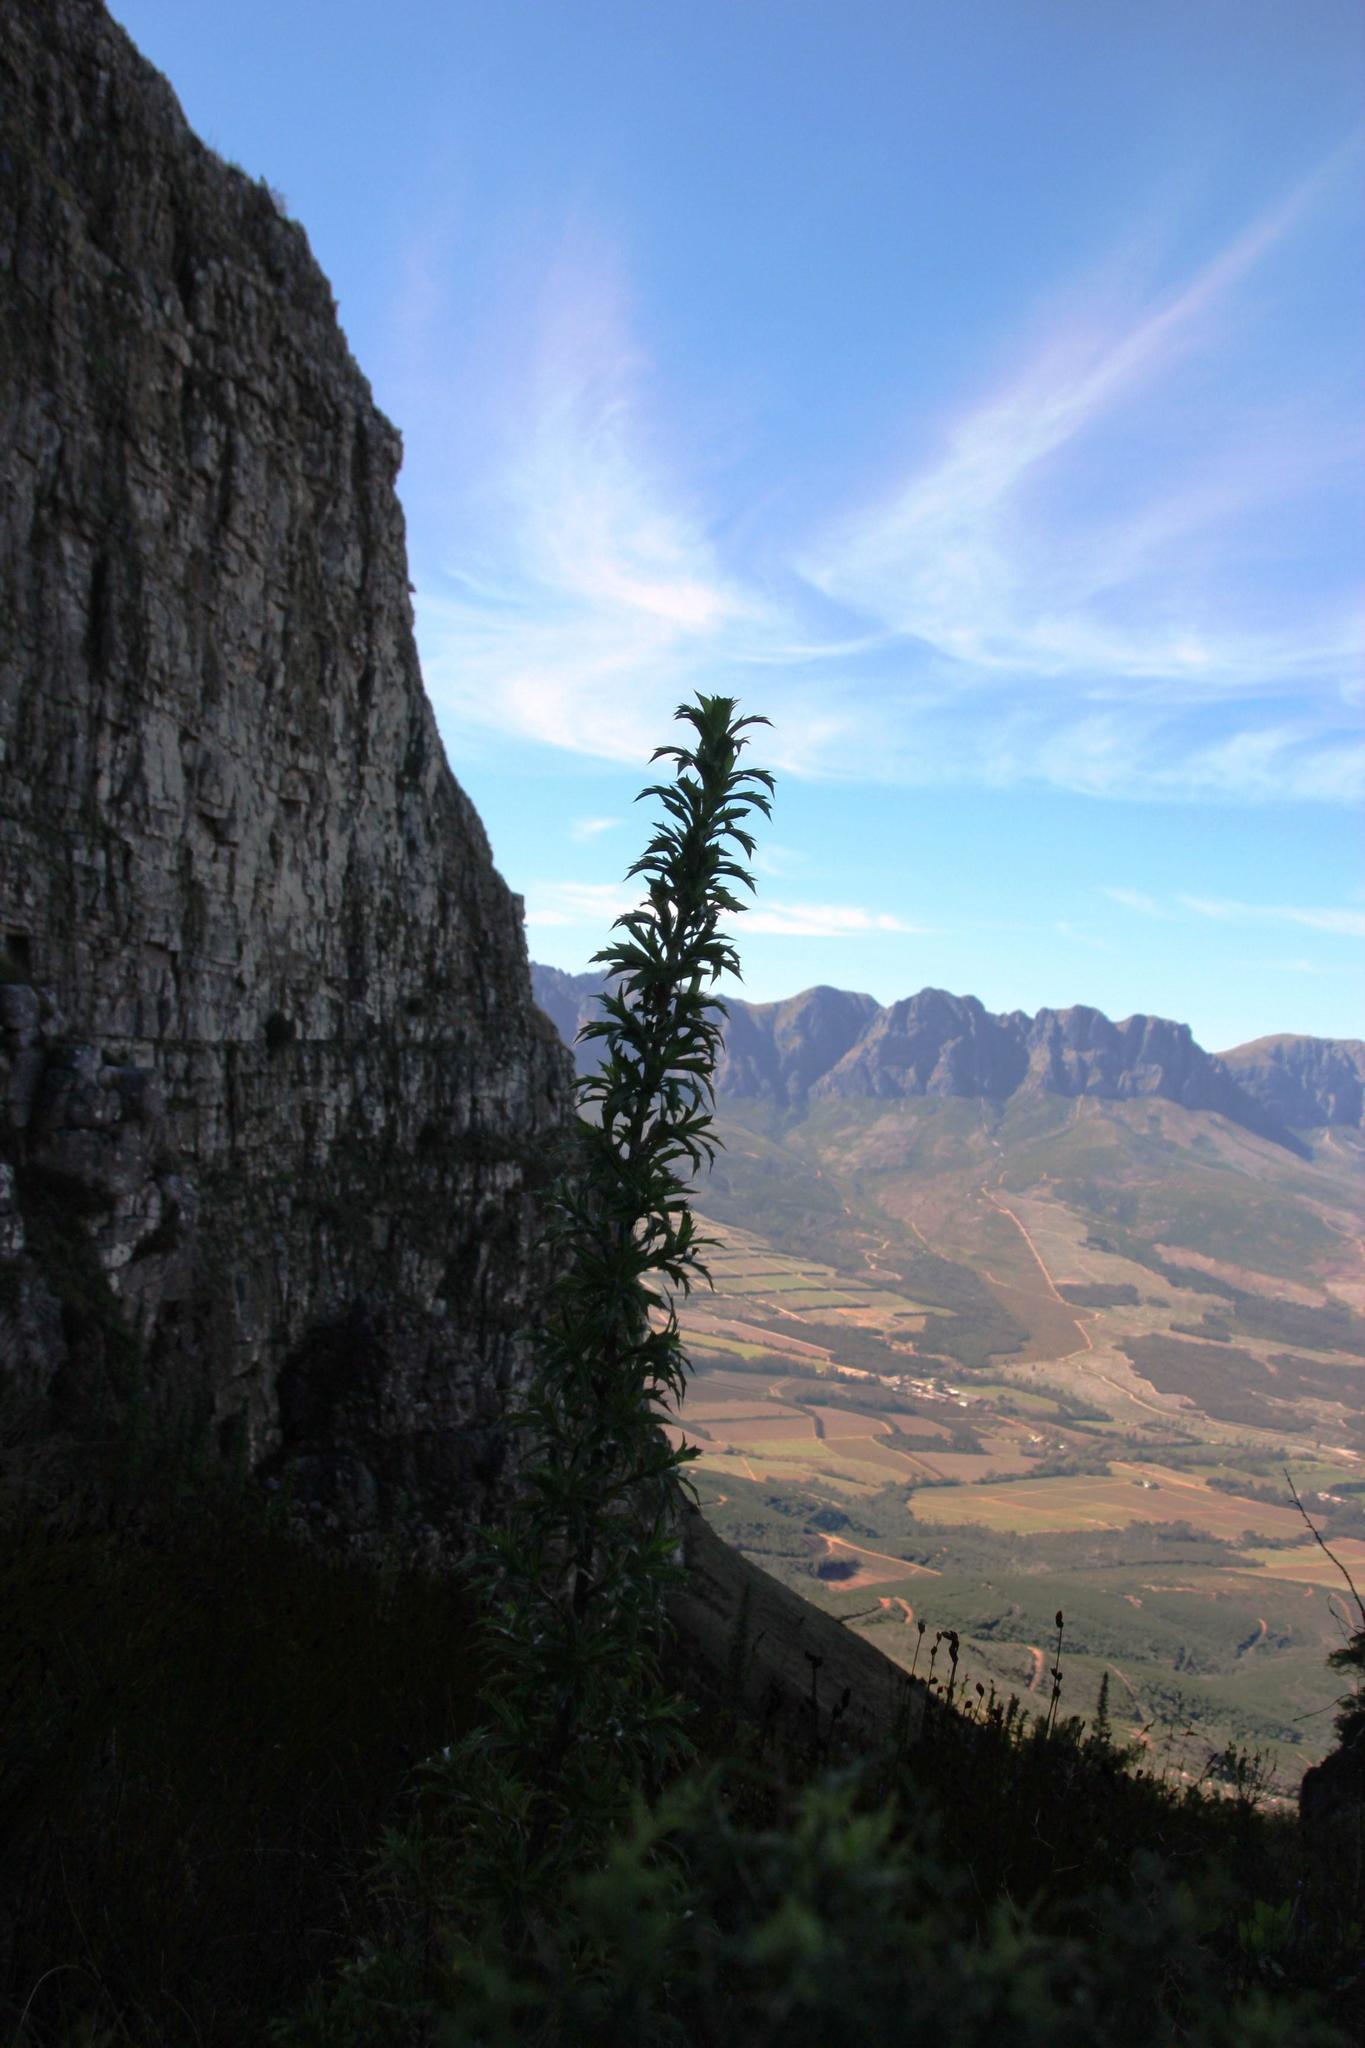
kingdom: Plantae
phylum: Tracheophyta
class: Magnoliopsida
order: Rosales
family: Rosaceae
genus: Cliffortia
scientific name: Cliffortia phillipsii
